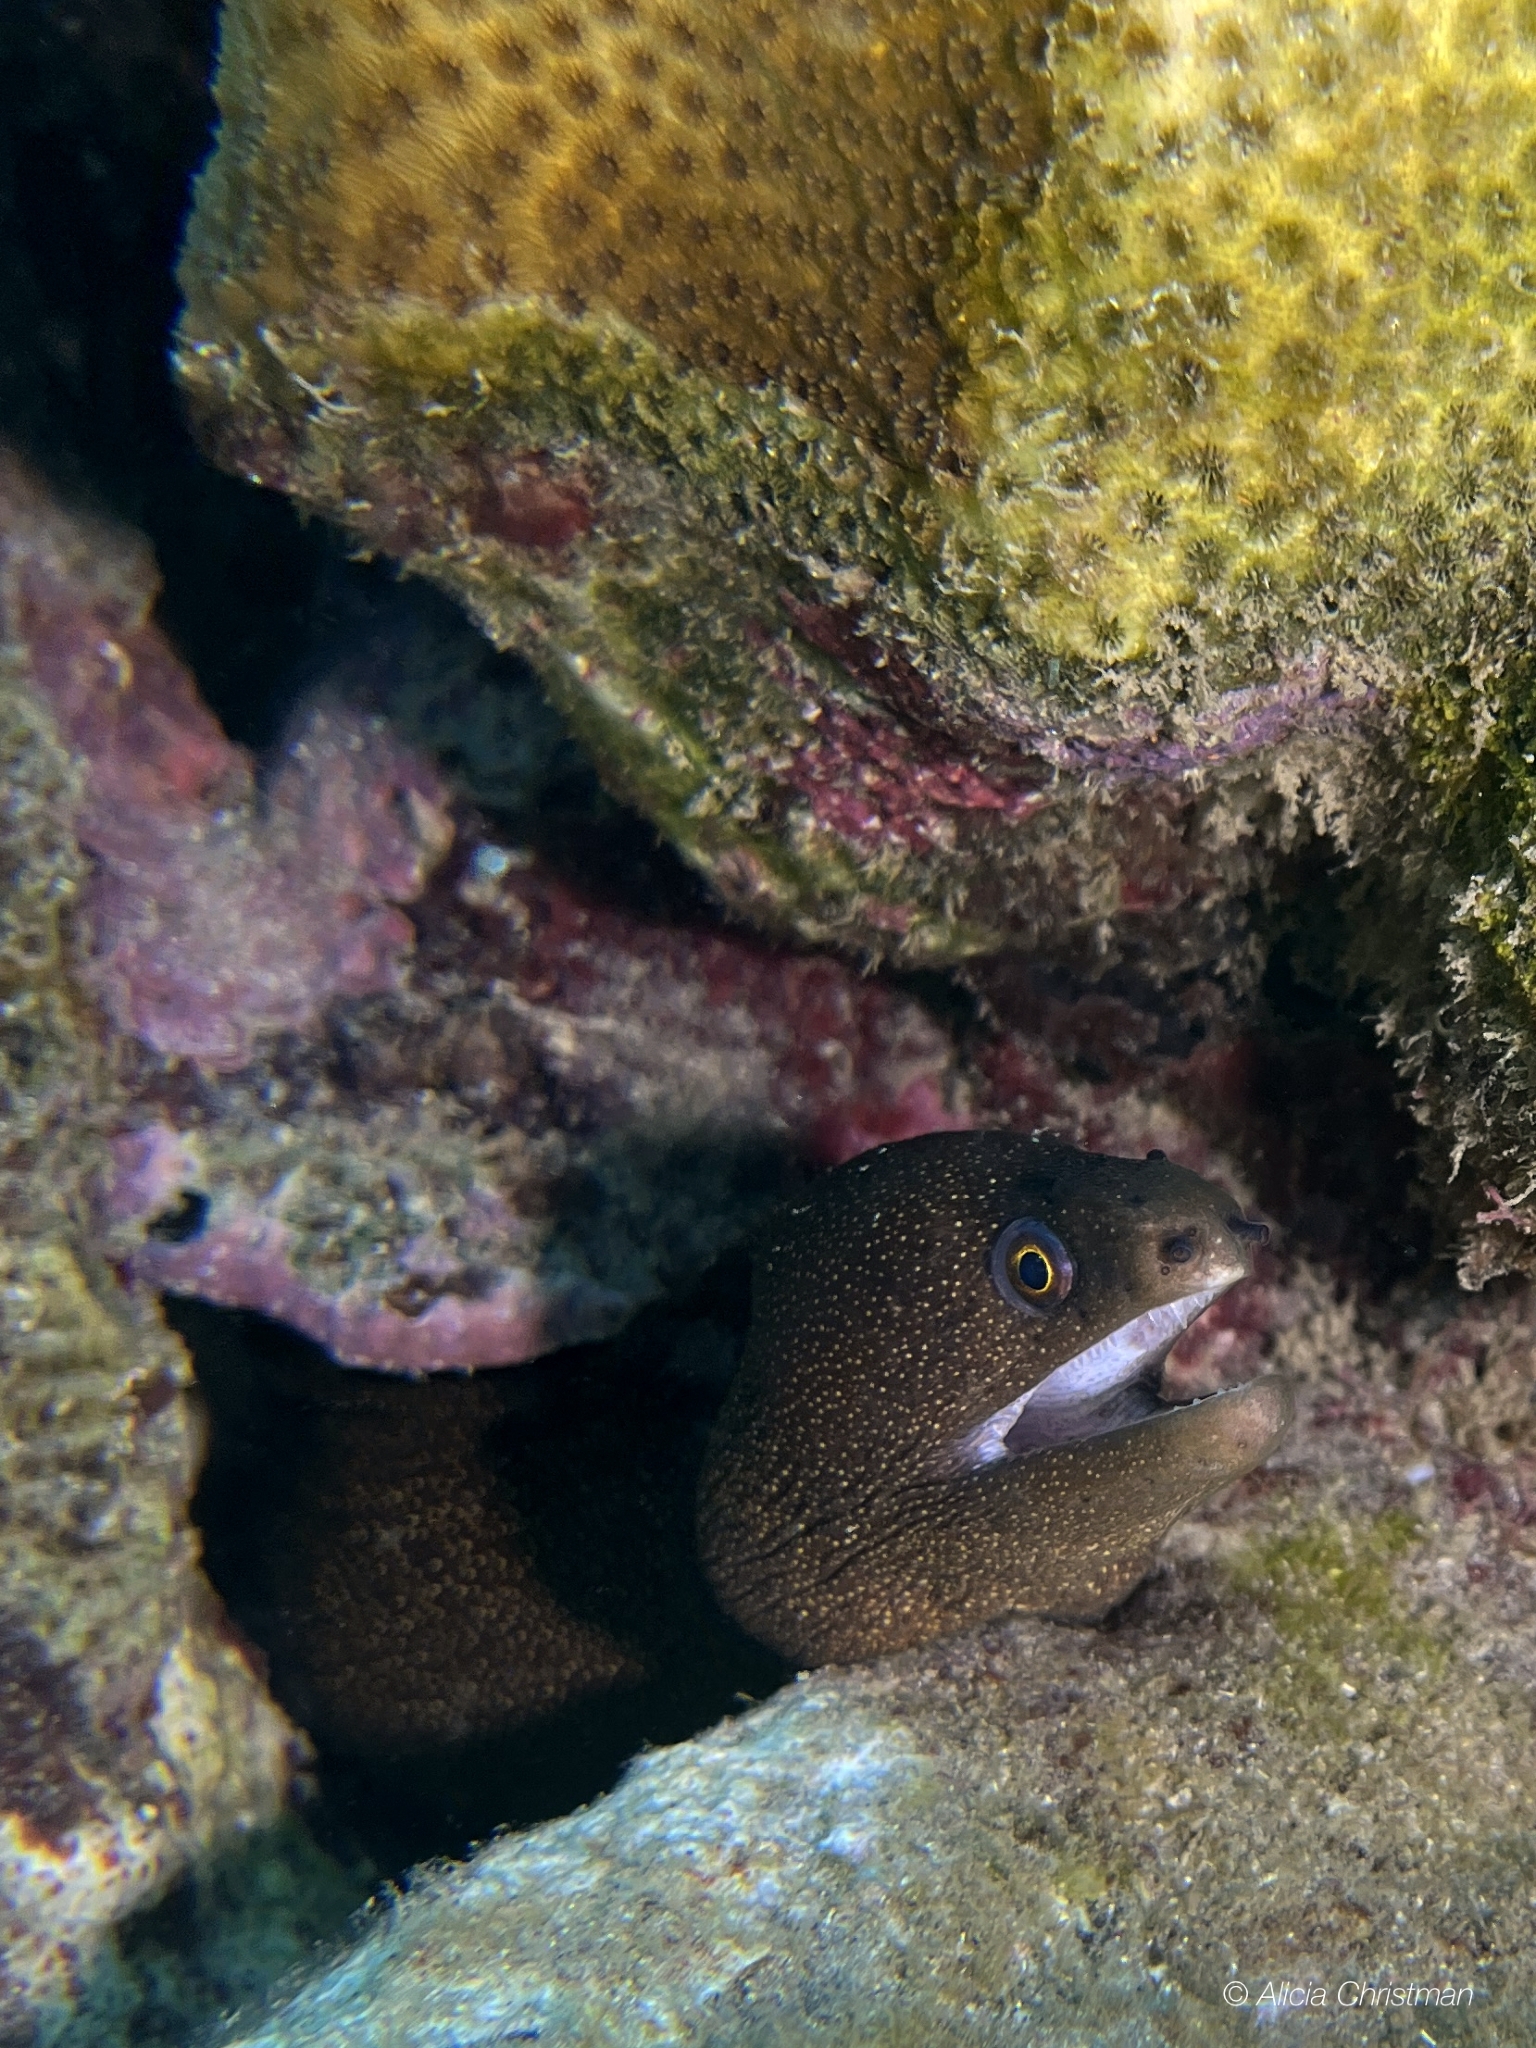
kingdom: Animalia
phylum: Chordata
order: Anguilliformes
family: Muraenidae
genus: Gymnothorax
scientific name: Gymnothorax miliaris
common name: Goldentail moray
